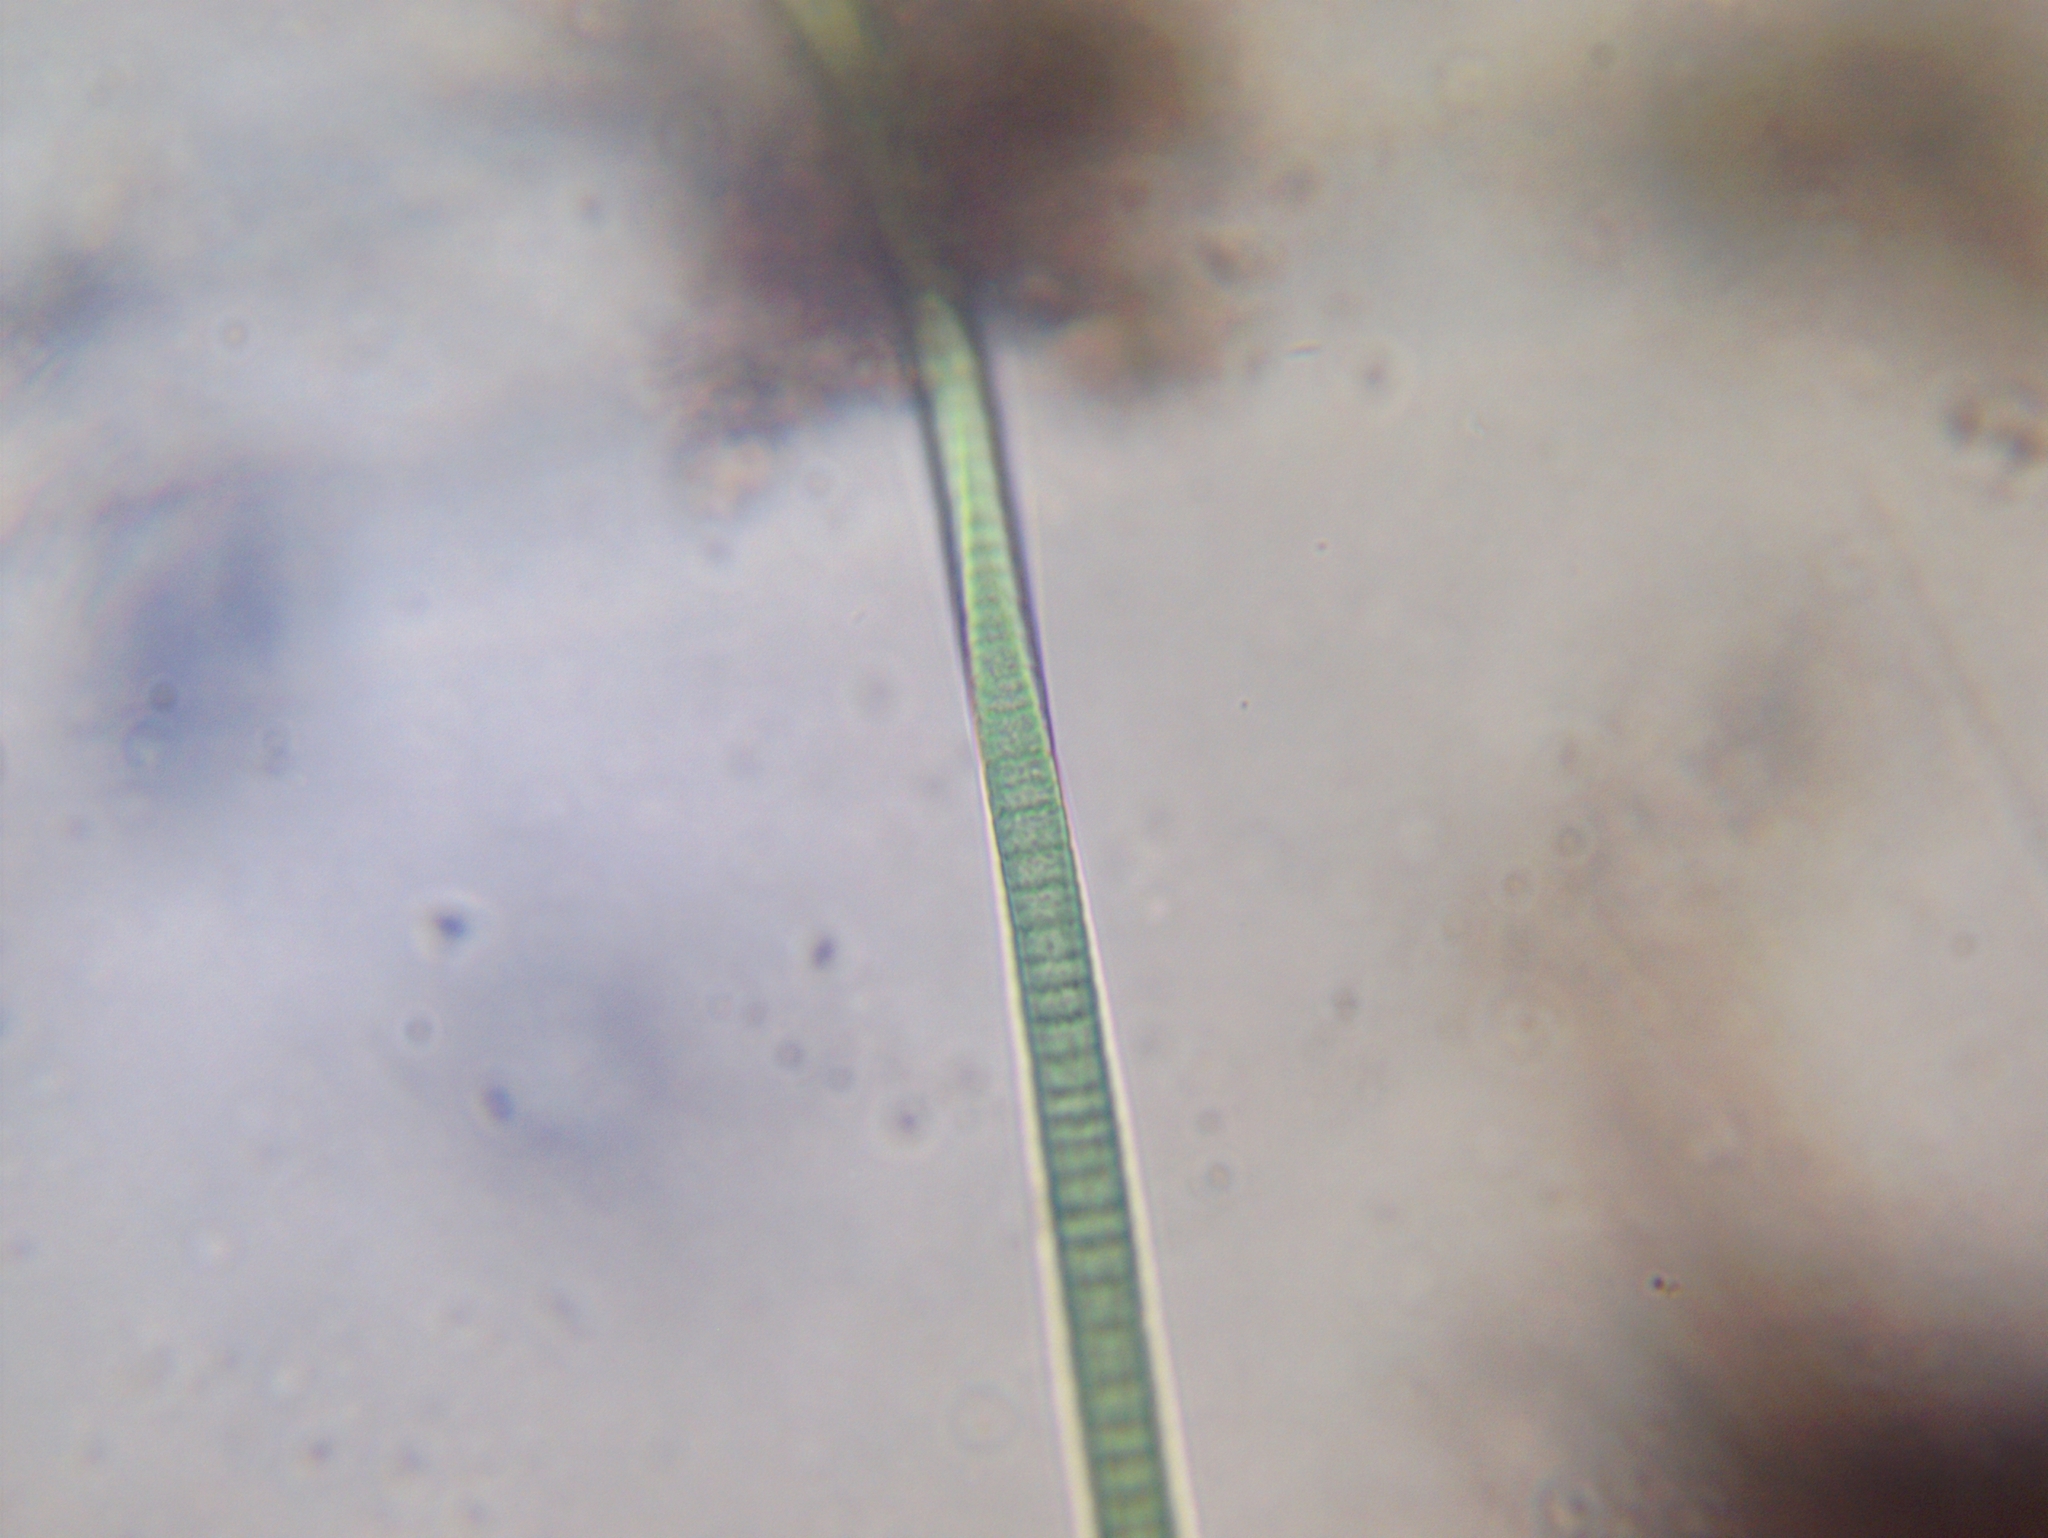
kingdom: Bacteria
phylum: Cyanobacteria
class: Cyanobacteriia
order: Cyanobacteriales
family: Oscillatoriaceae
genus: Oscillatoria
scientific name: Oscillatoria
